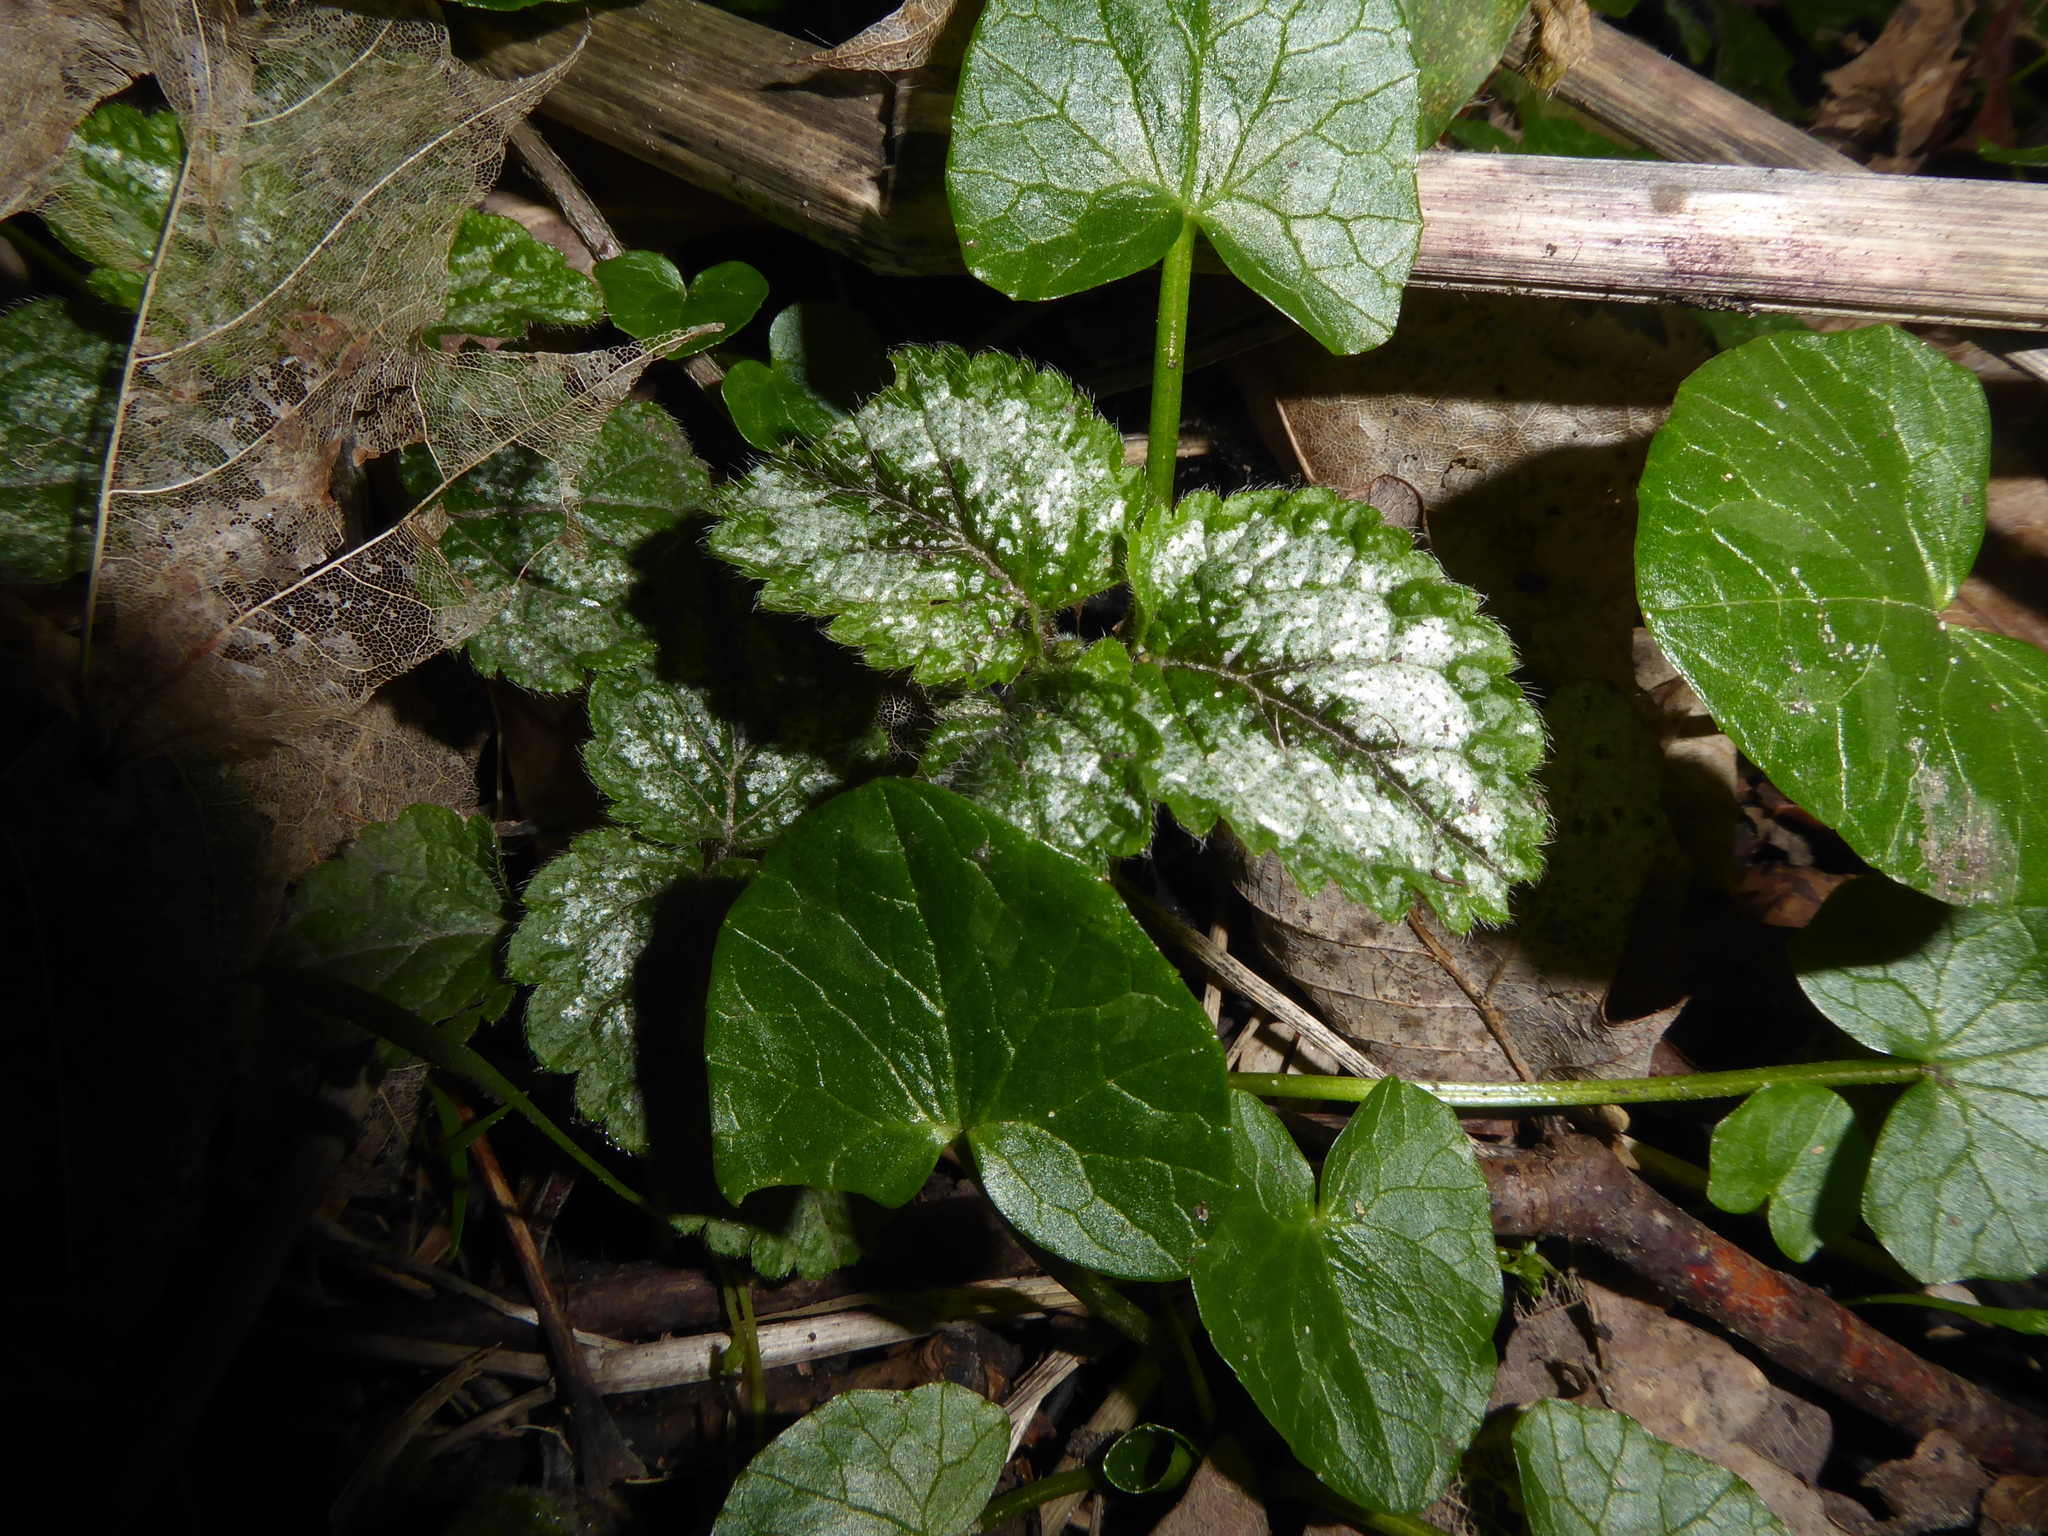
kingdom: Plantae
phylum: Tracheophyta
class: Magnoliopsida
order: Lamiales
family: Lamiaceae
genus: Lamium
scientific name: Lamium galeobdolon
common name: Yellow archangel
